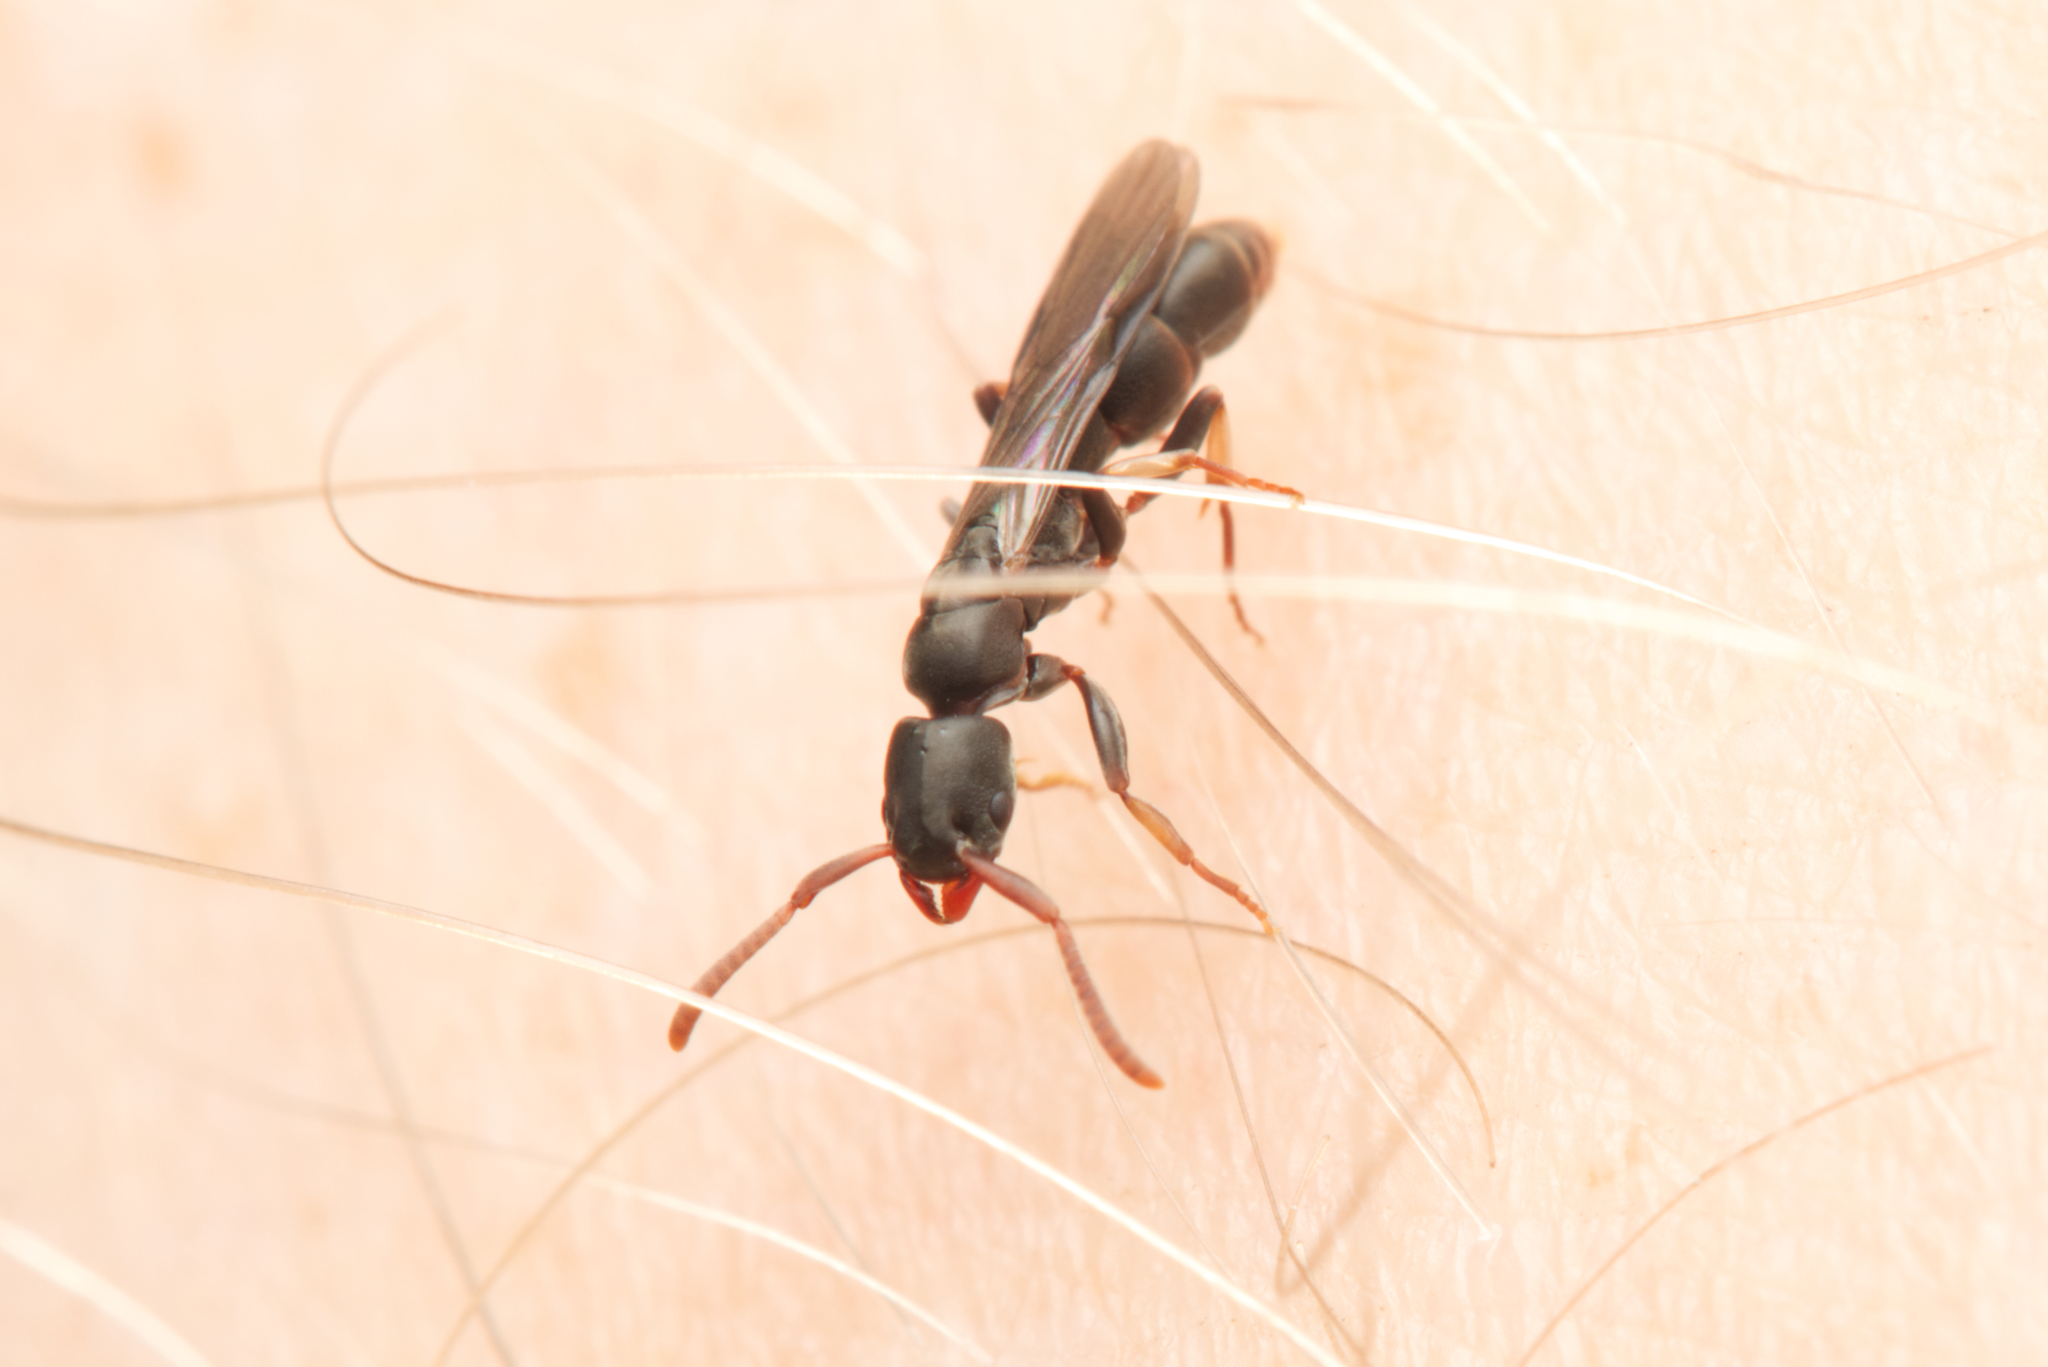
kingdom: Animalia
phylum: Arthropoda
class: Insecta
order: Hymenoptera
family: Formicidae
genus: Platythyrea
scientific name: Platythyrea parallela
